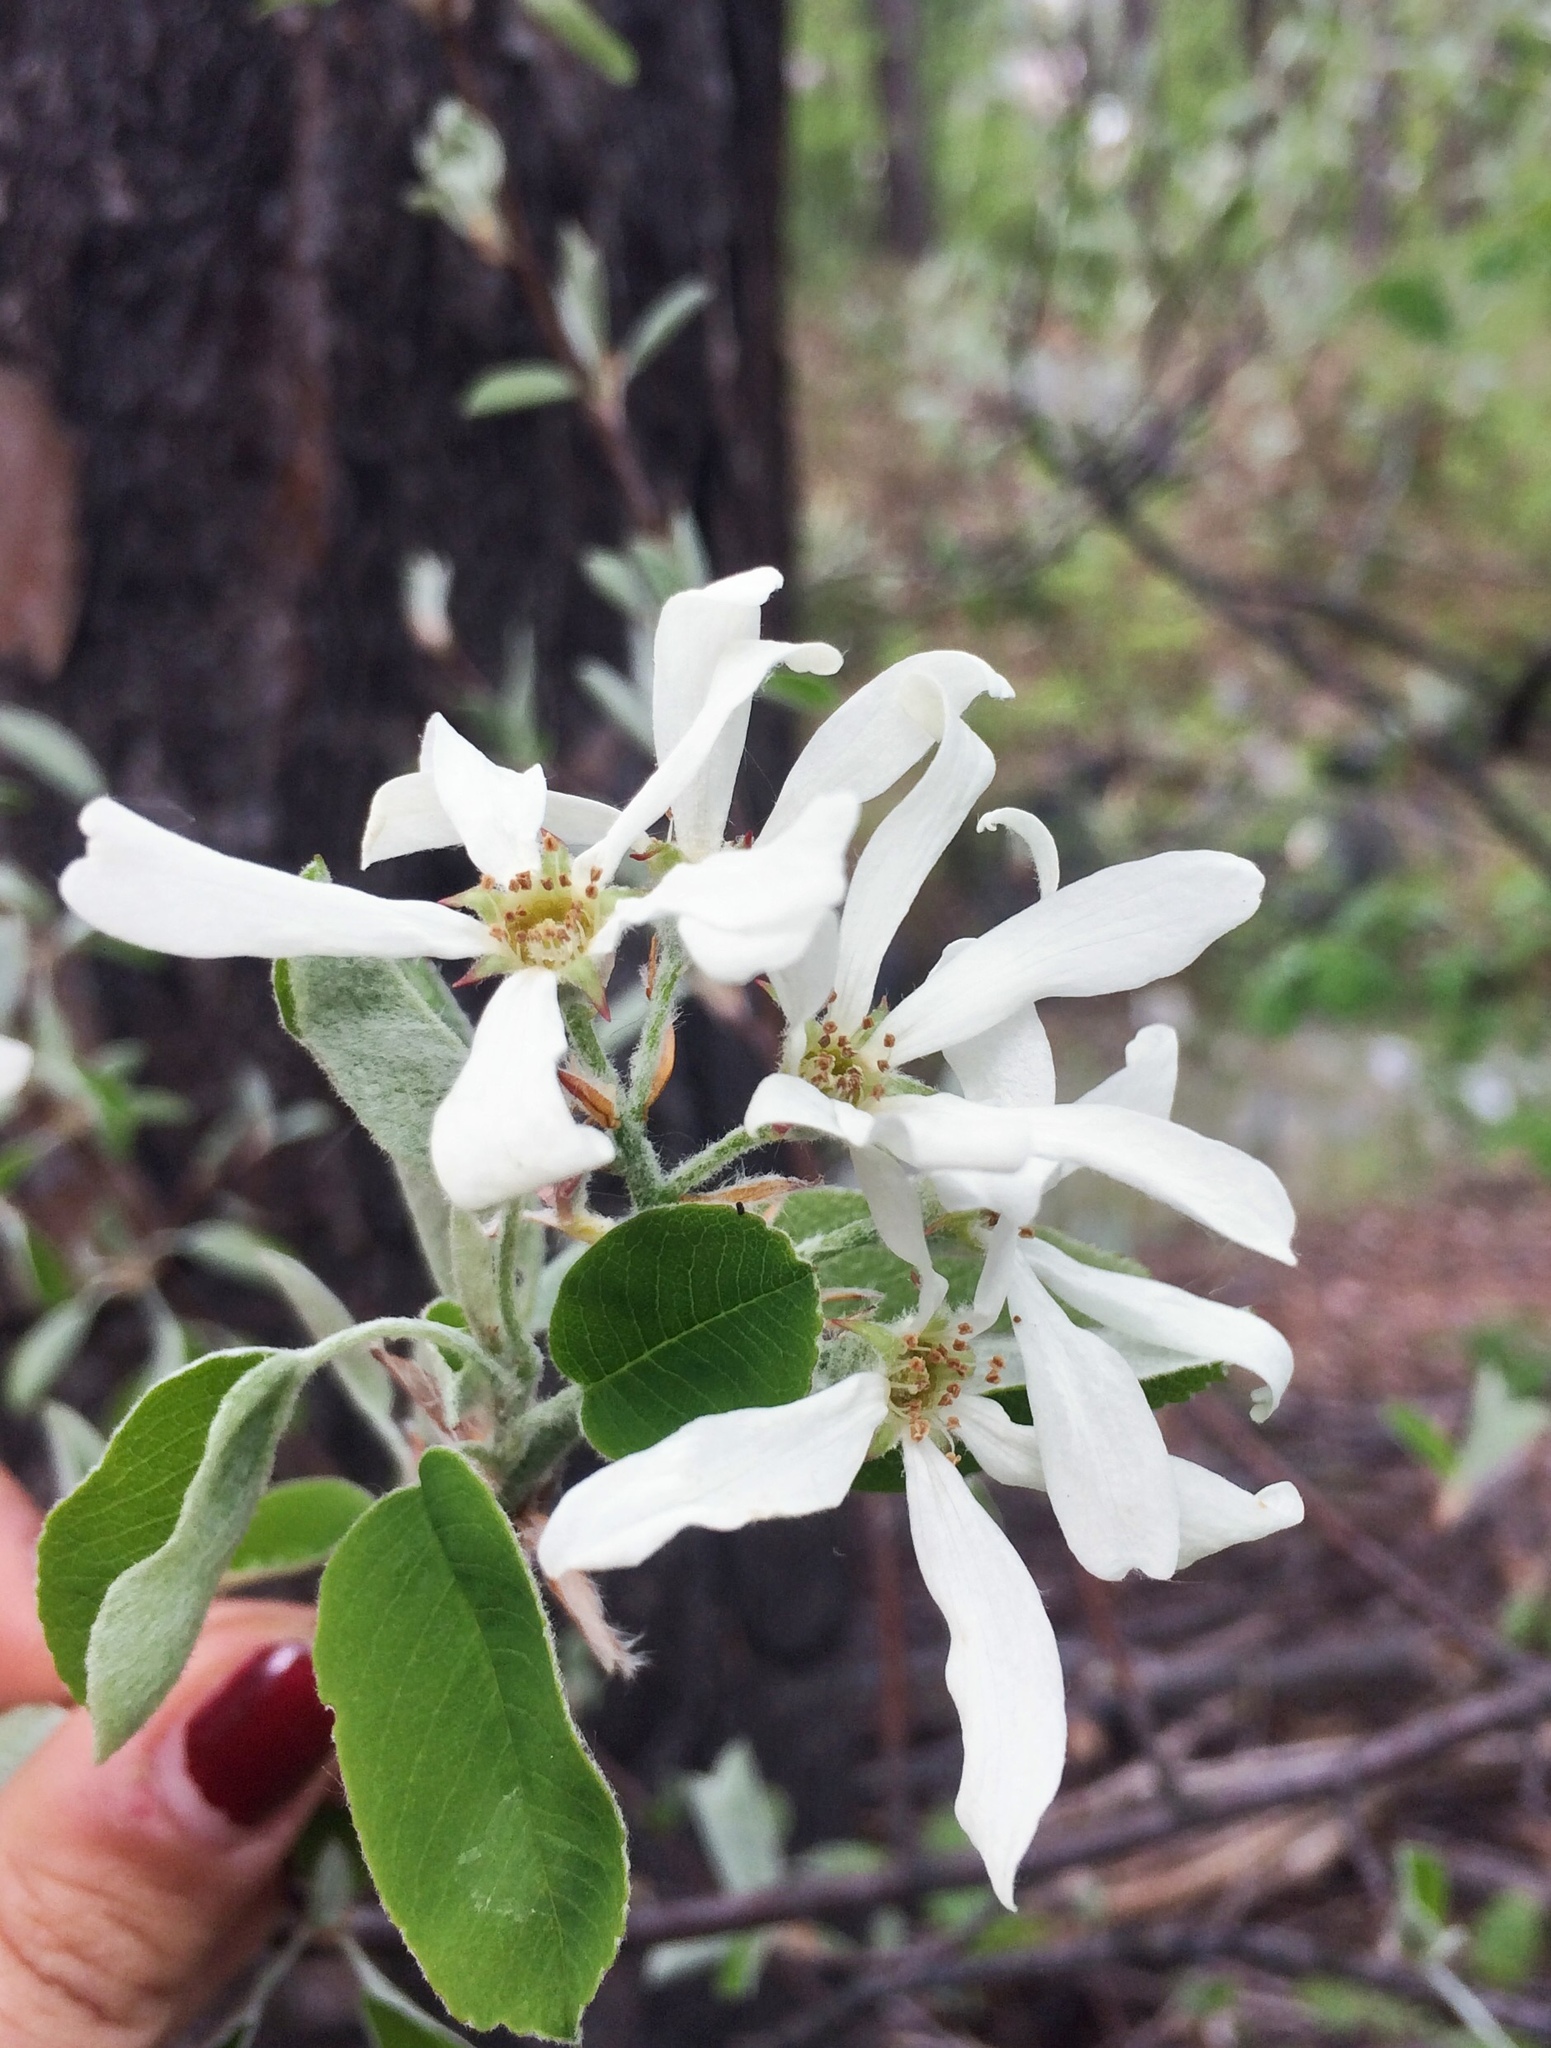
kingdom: Plantae
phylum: Tracheophyta
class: Magnoliopsida
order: Rosales
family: Rosaceae
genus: Amelanchier
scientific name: Amelanchier ovalis
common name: Serviceberry
